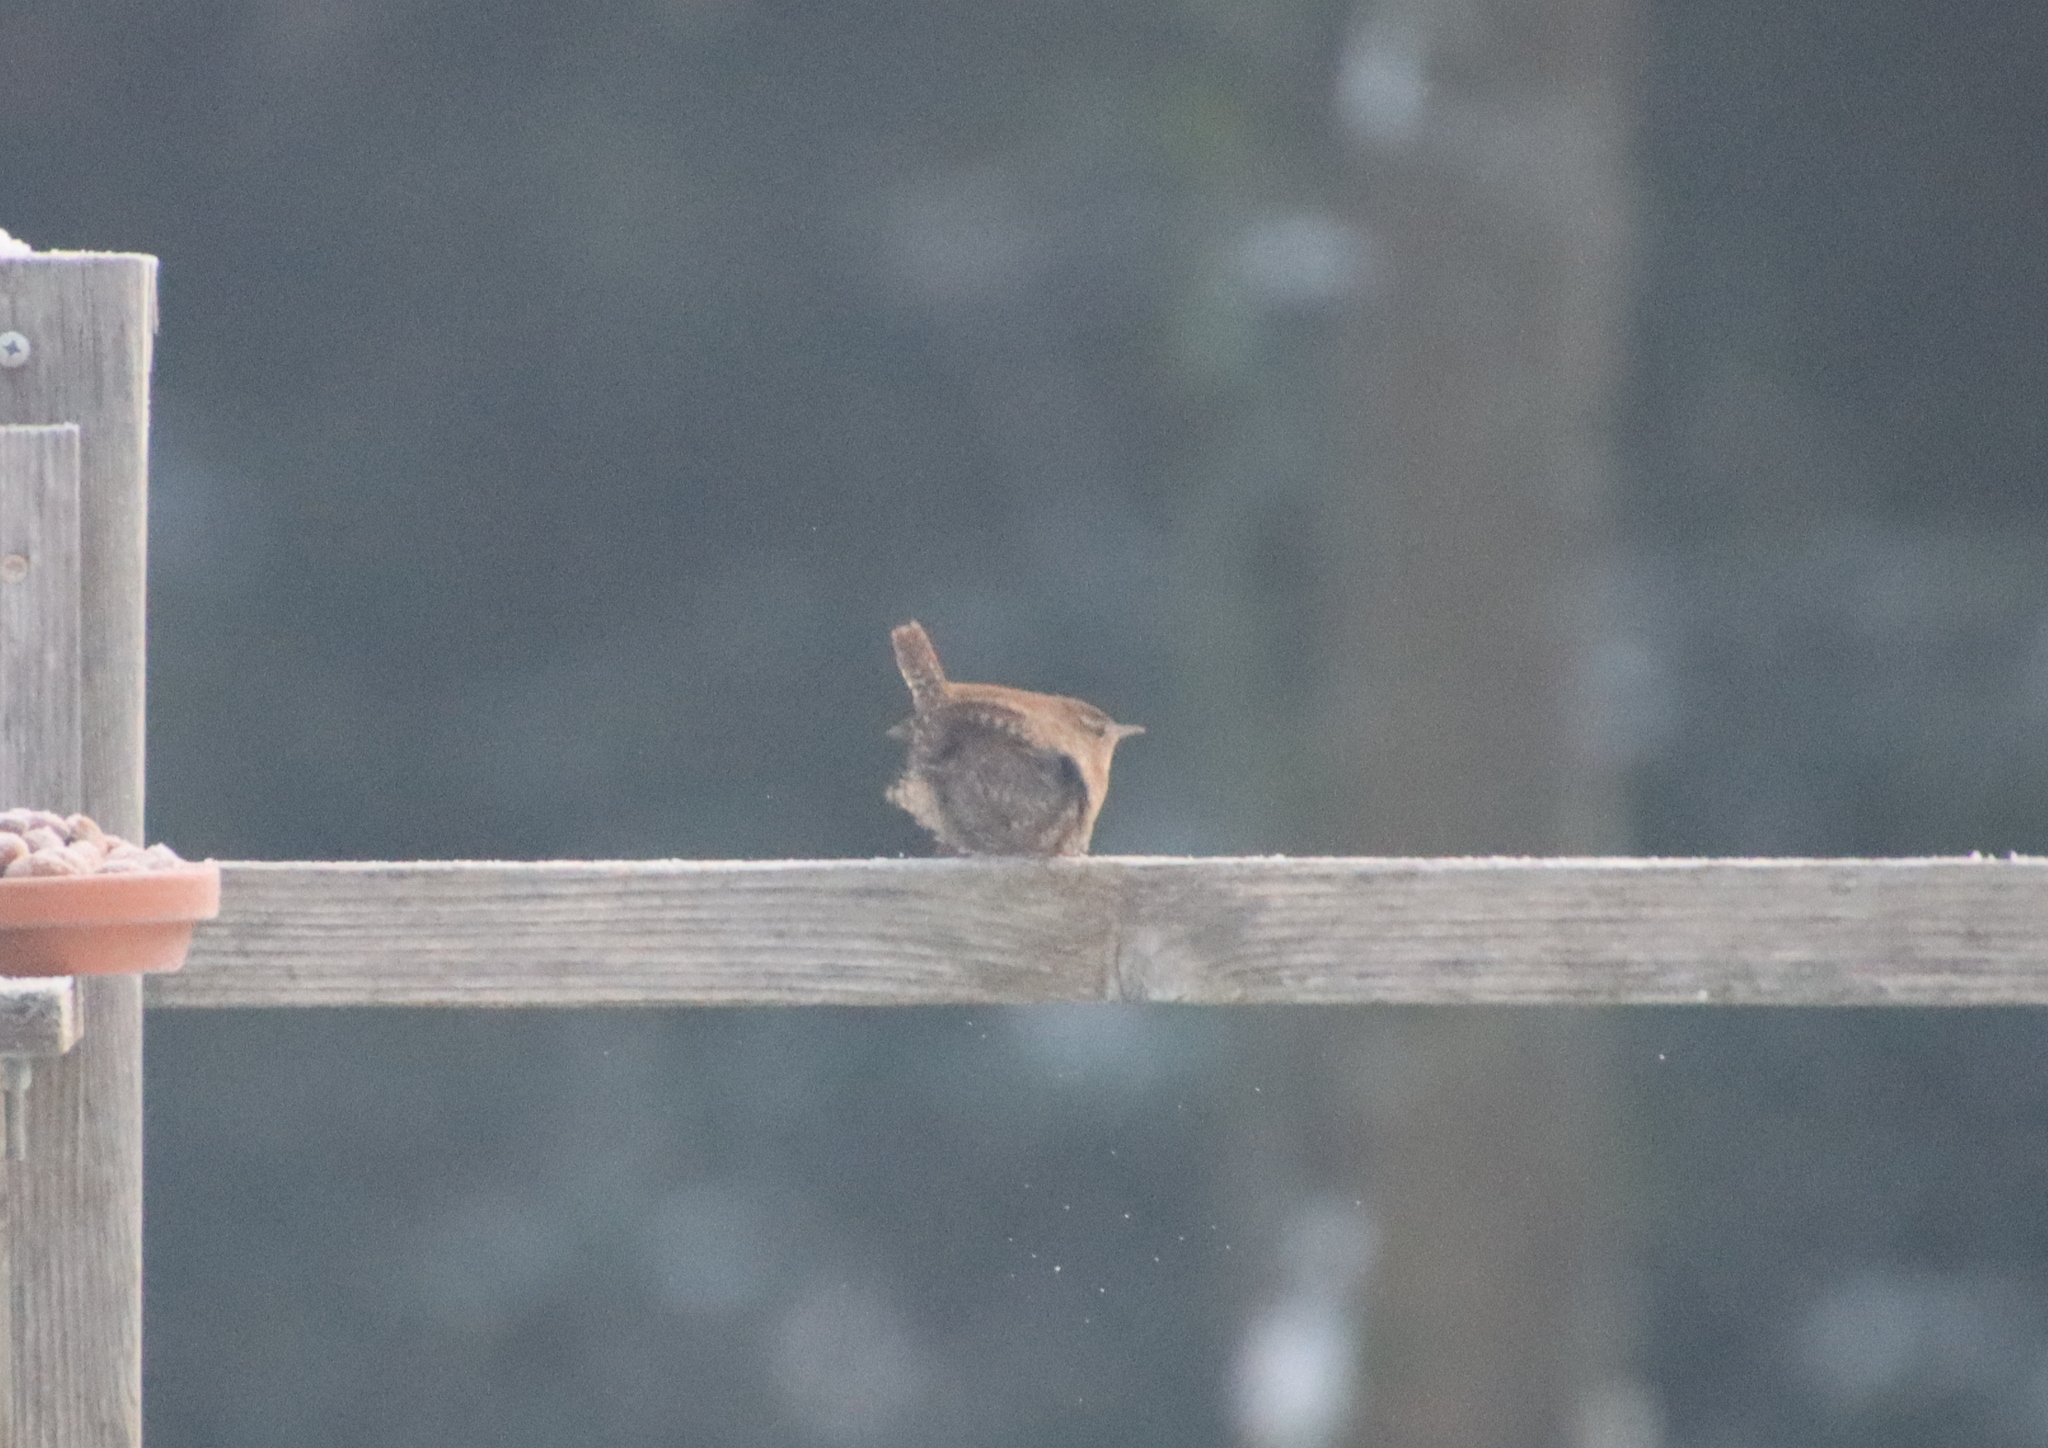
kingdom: Animalia
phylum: Chordata
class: Aves
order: Passeriformes
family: Troglodytidae
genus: Troglodytes
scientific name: Troglodytes troglodytes
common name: Eurasian wren
